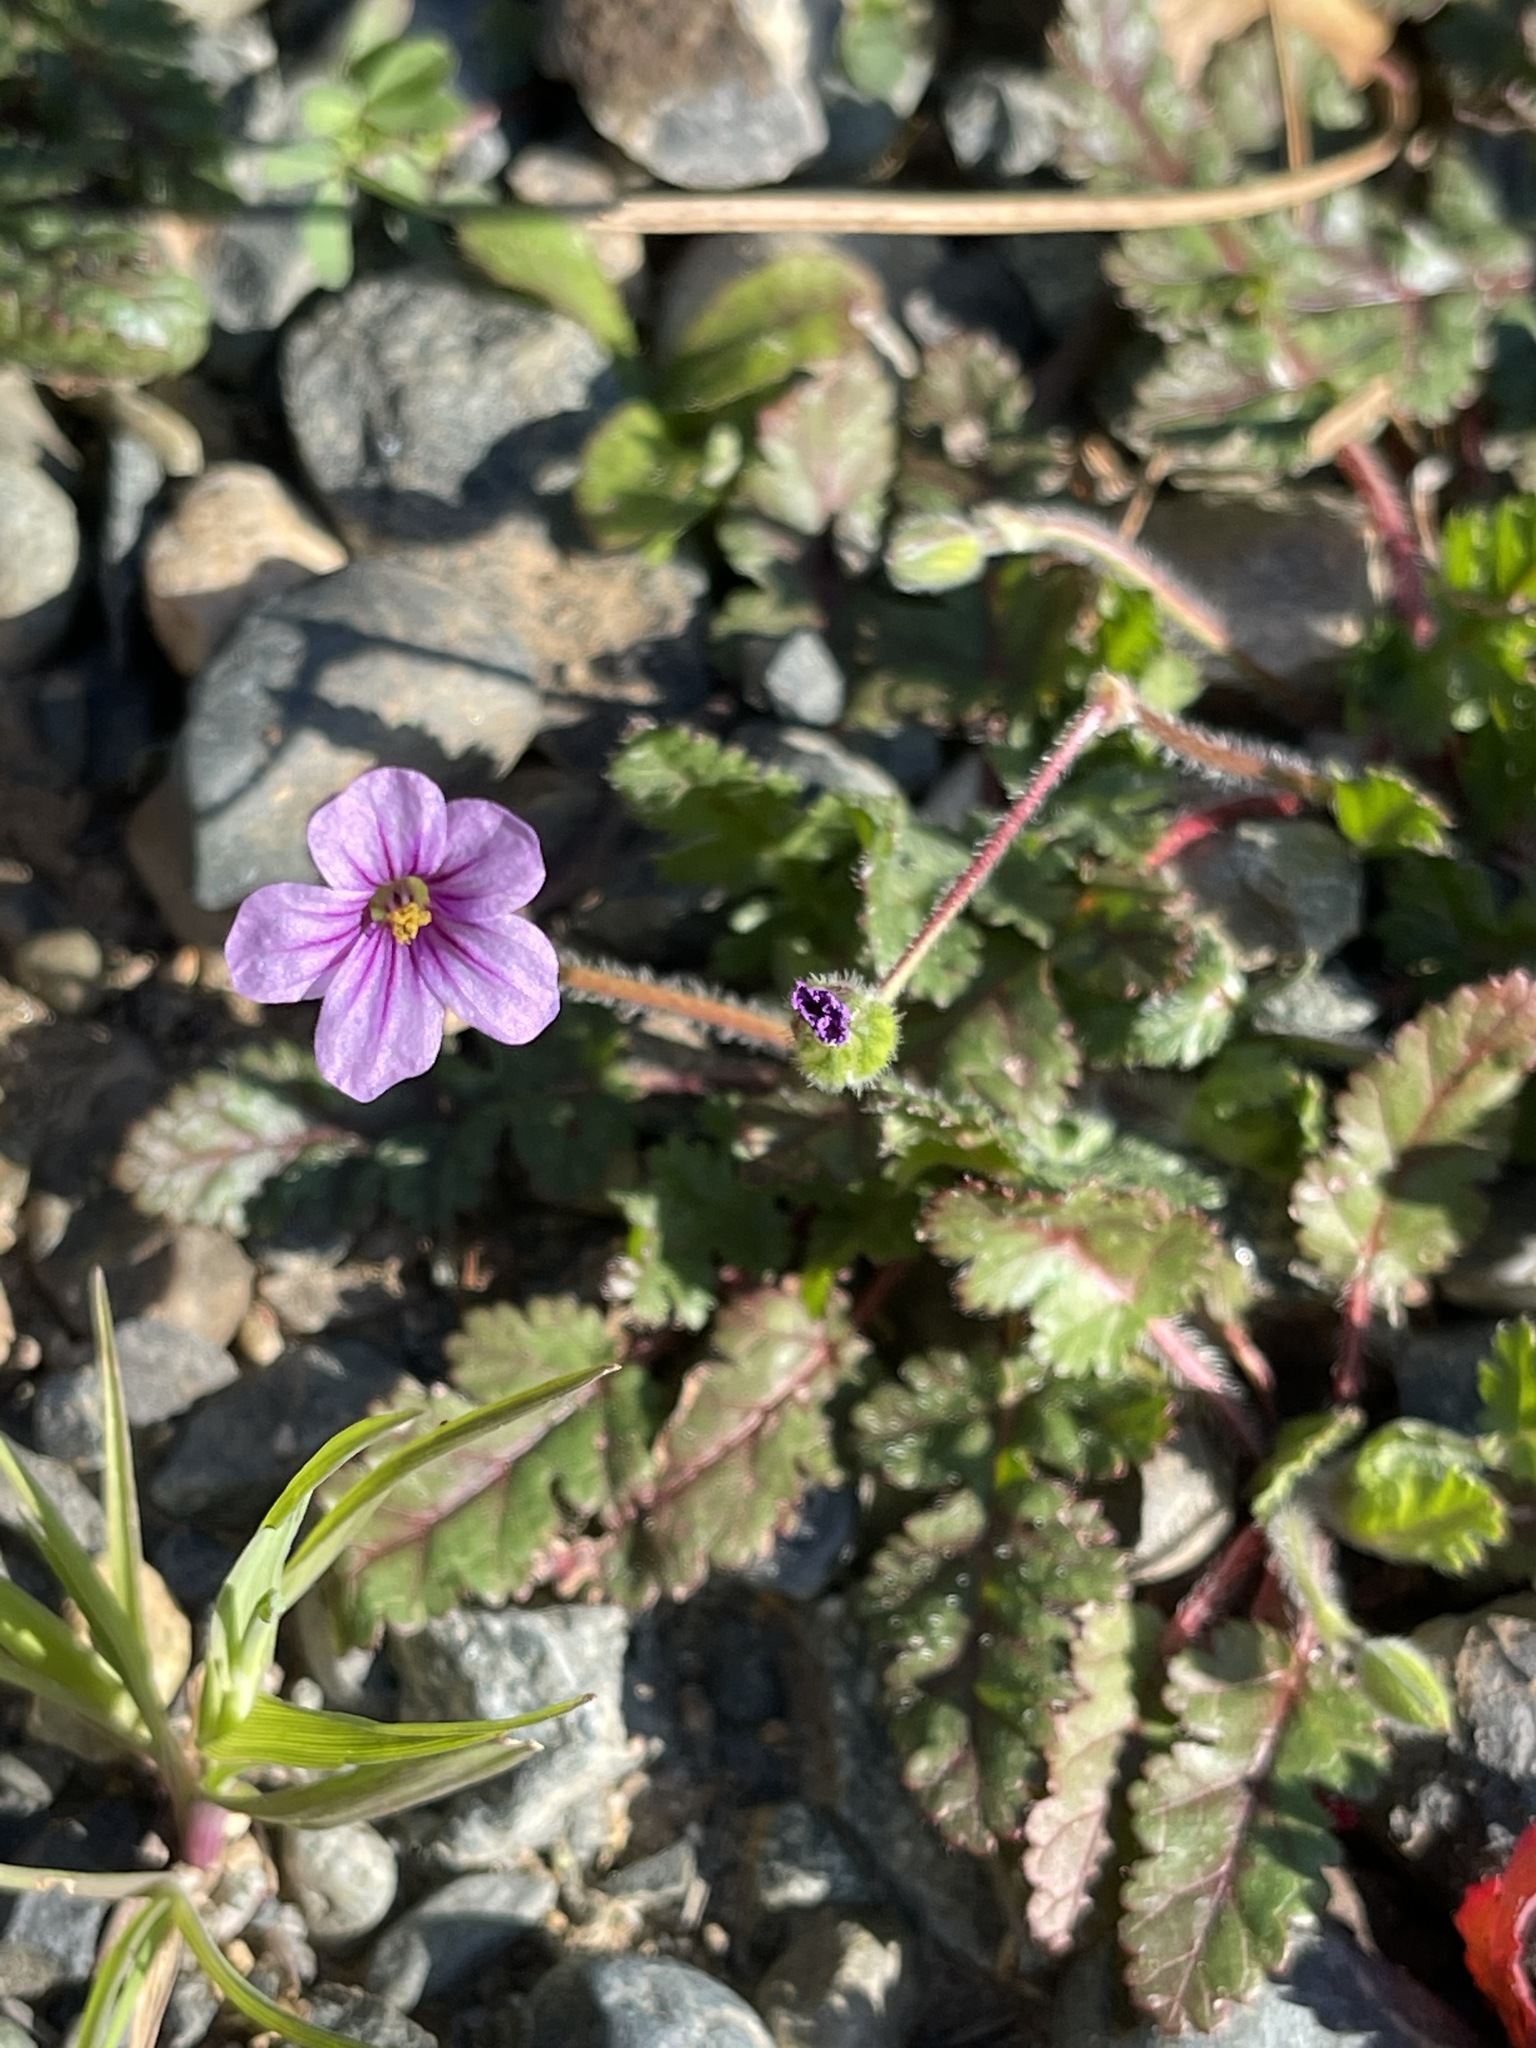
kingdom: Plantae
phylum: Tracheophyta
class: Magnoliopsida
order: Geraniales
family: Geraniaceae
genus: Erodium
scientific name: Erodium botrys
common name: Mediterranean stork's-bill
